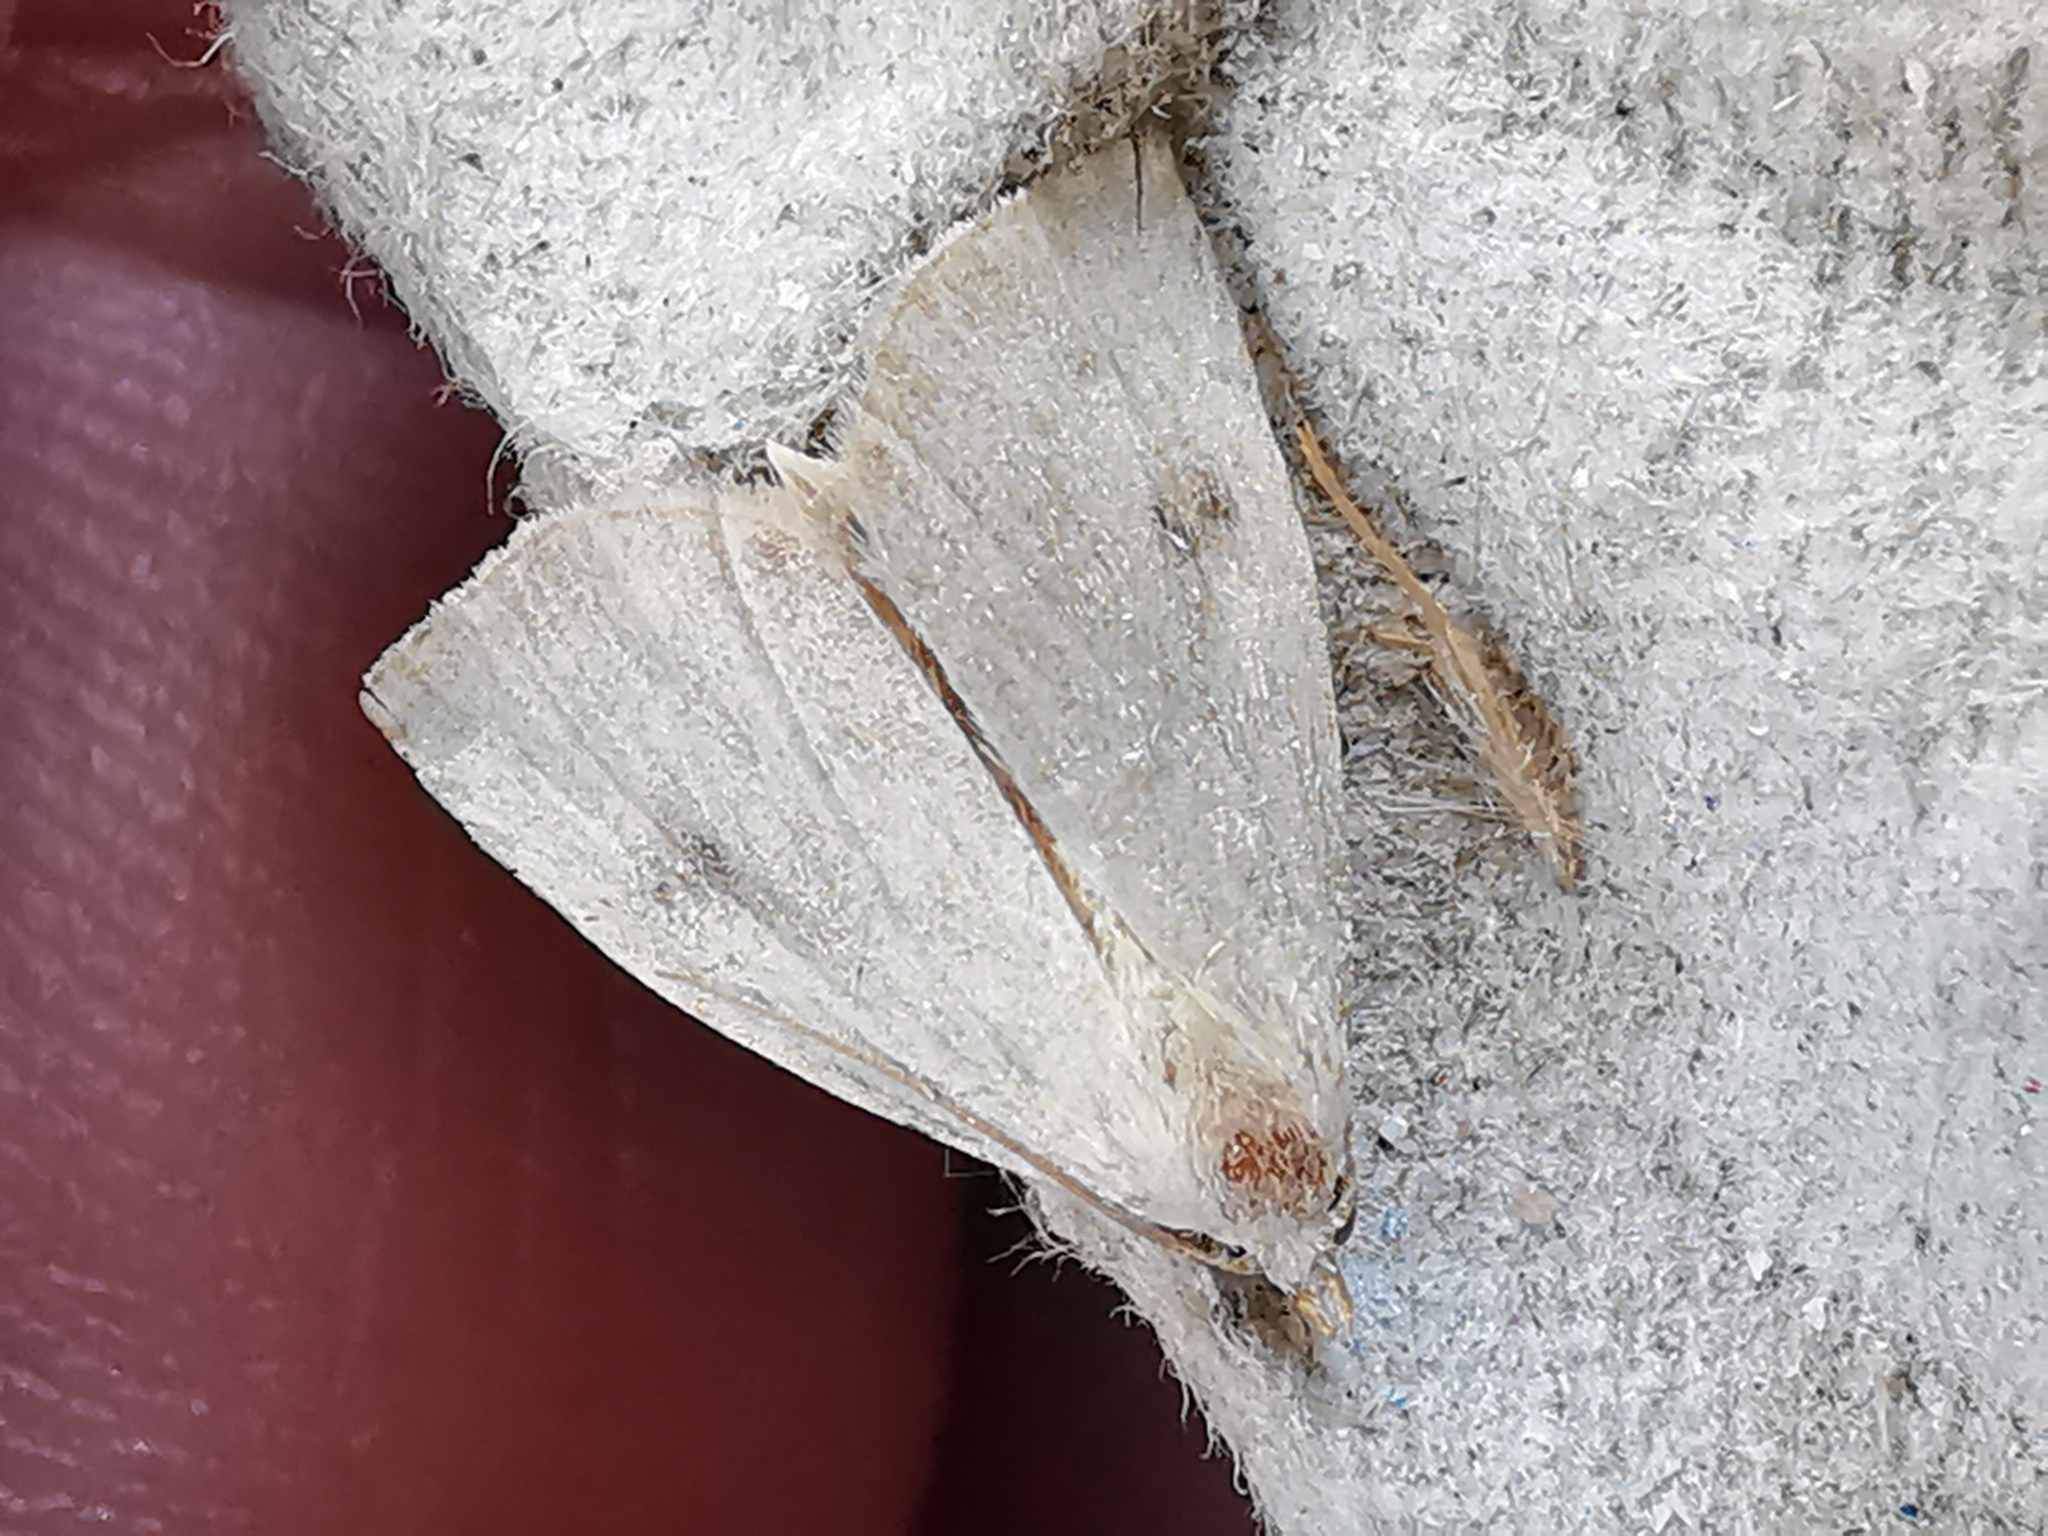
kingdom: Animalia
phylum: Arthropoda
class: Insecta
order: Lepidoptera
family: Erebidae
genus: Rivula
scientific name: Rivula sericealis
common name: Straw dot
